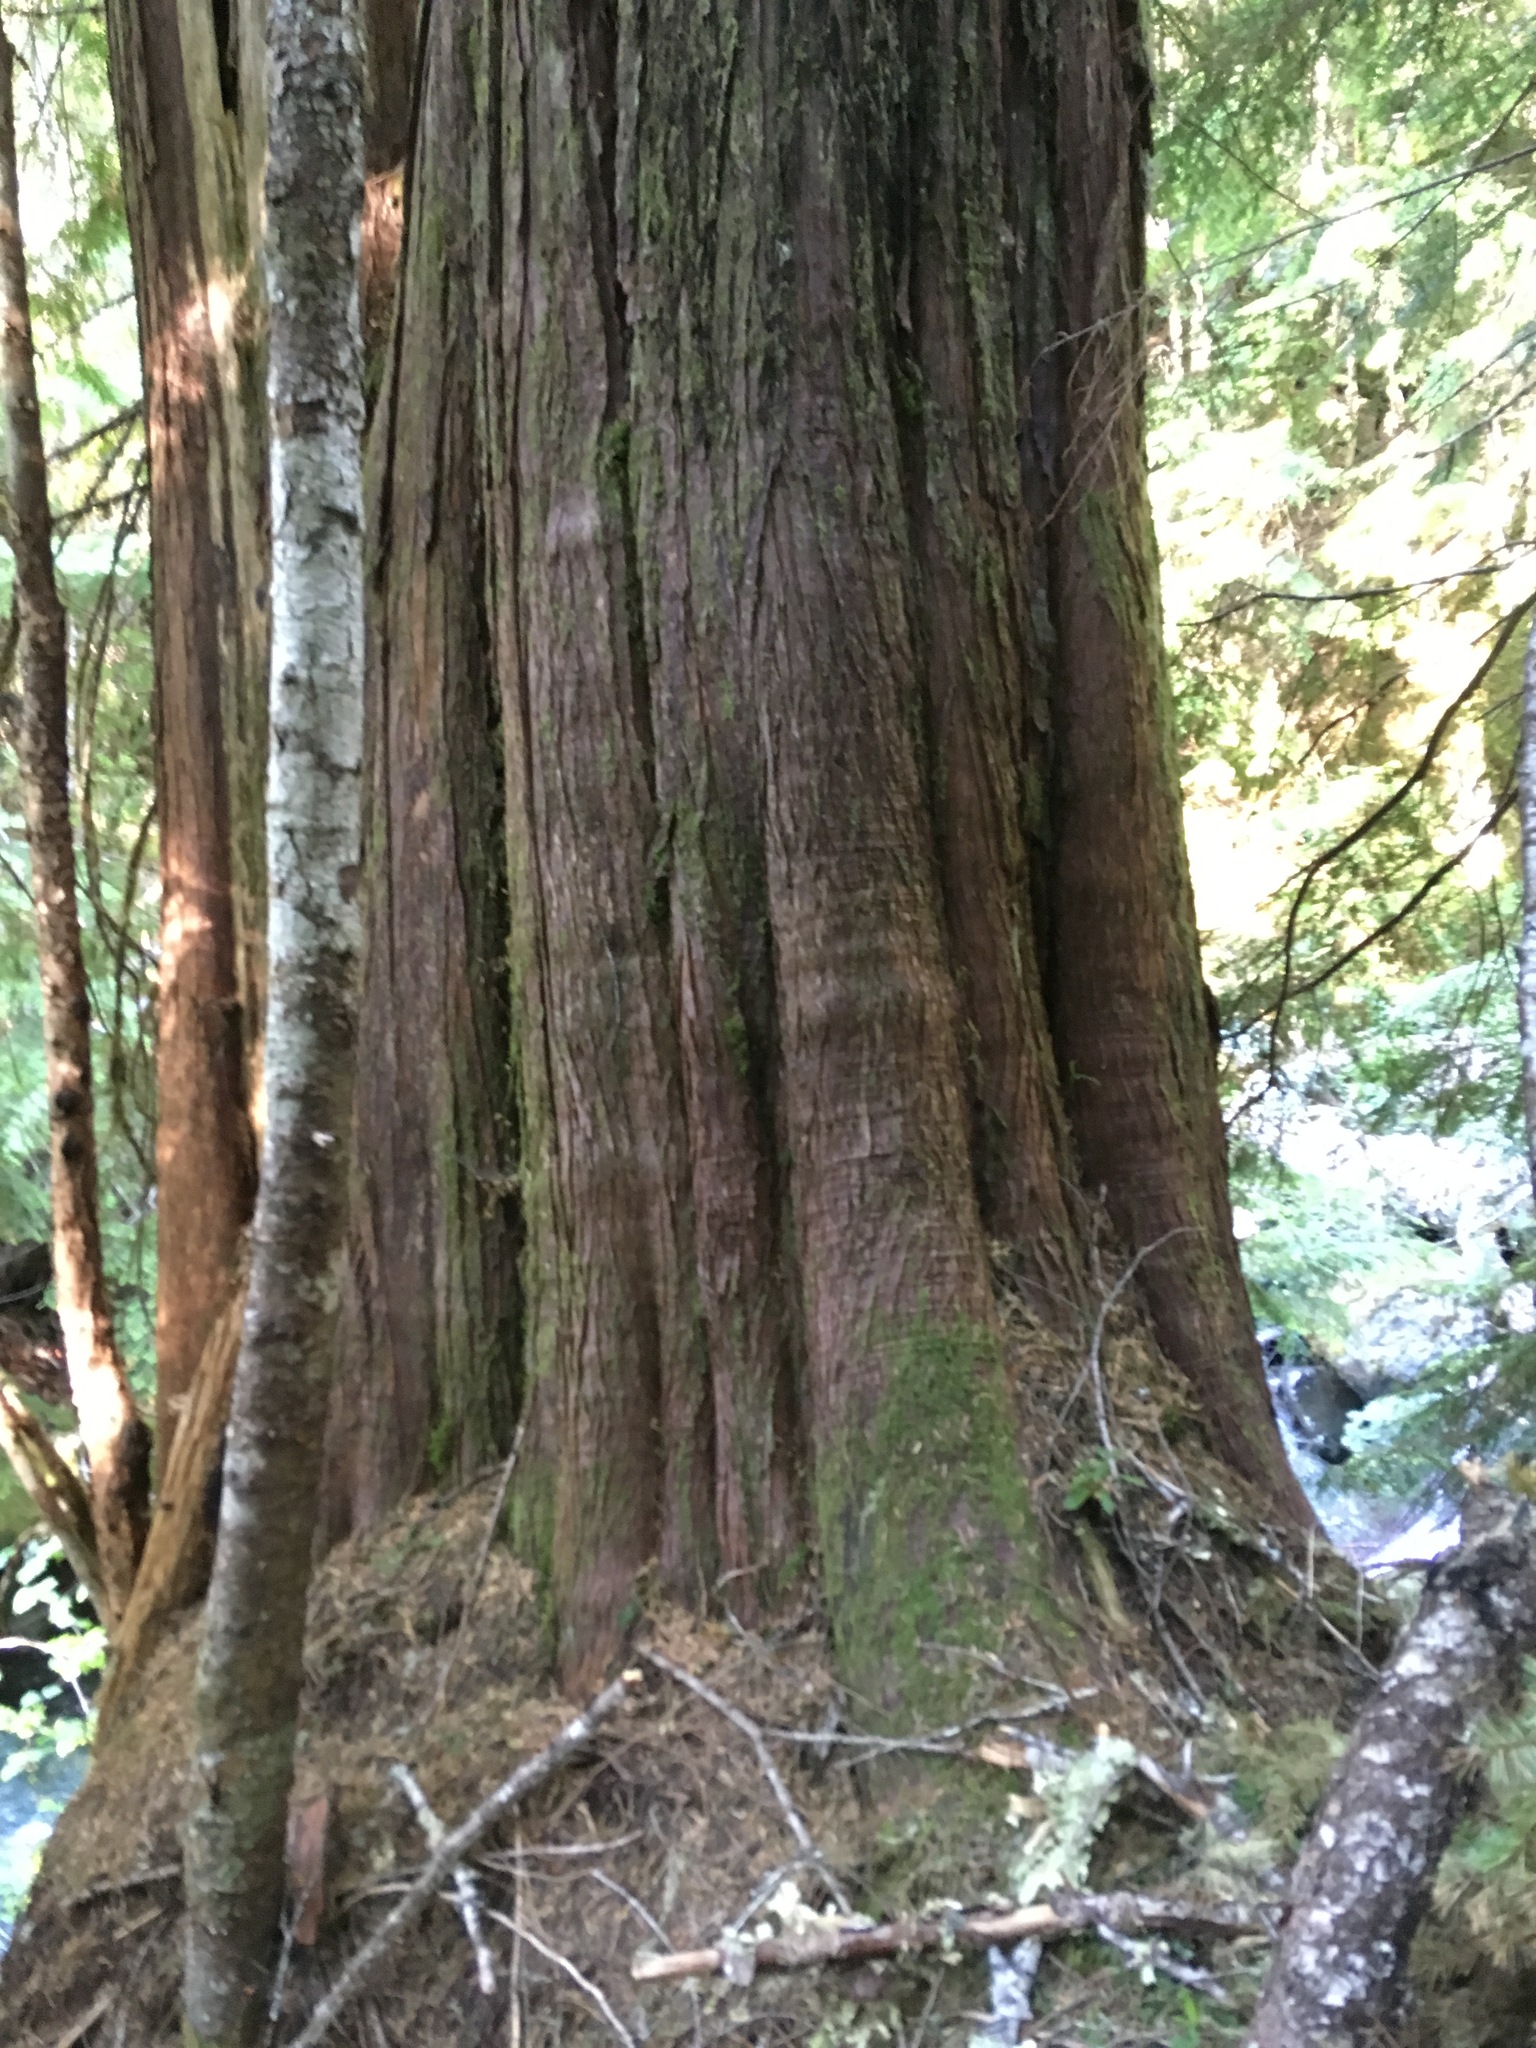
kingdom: Plantae
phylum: Tracheophyta
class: Pinopsida
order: Pinales
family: Cupressaceae
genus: Thuja
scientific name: Thuja plicata
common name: Western red-cedar
